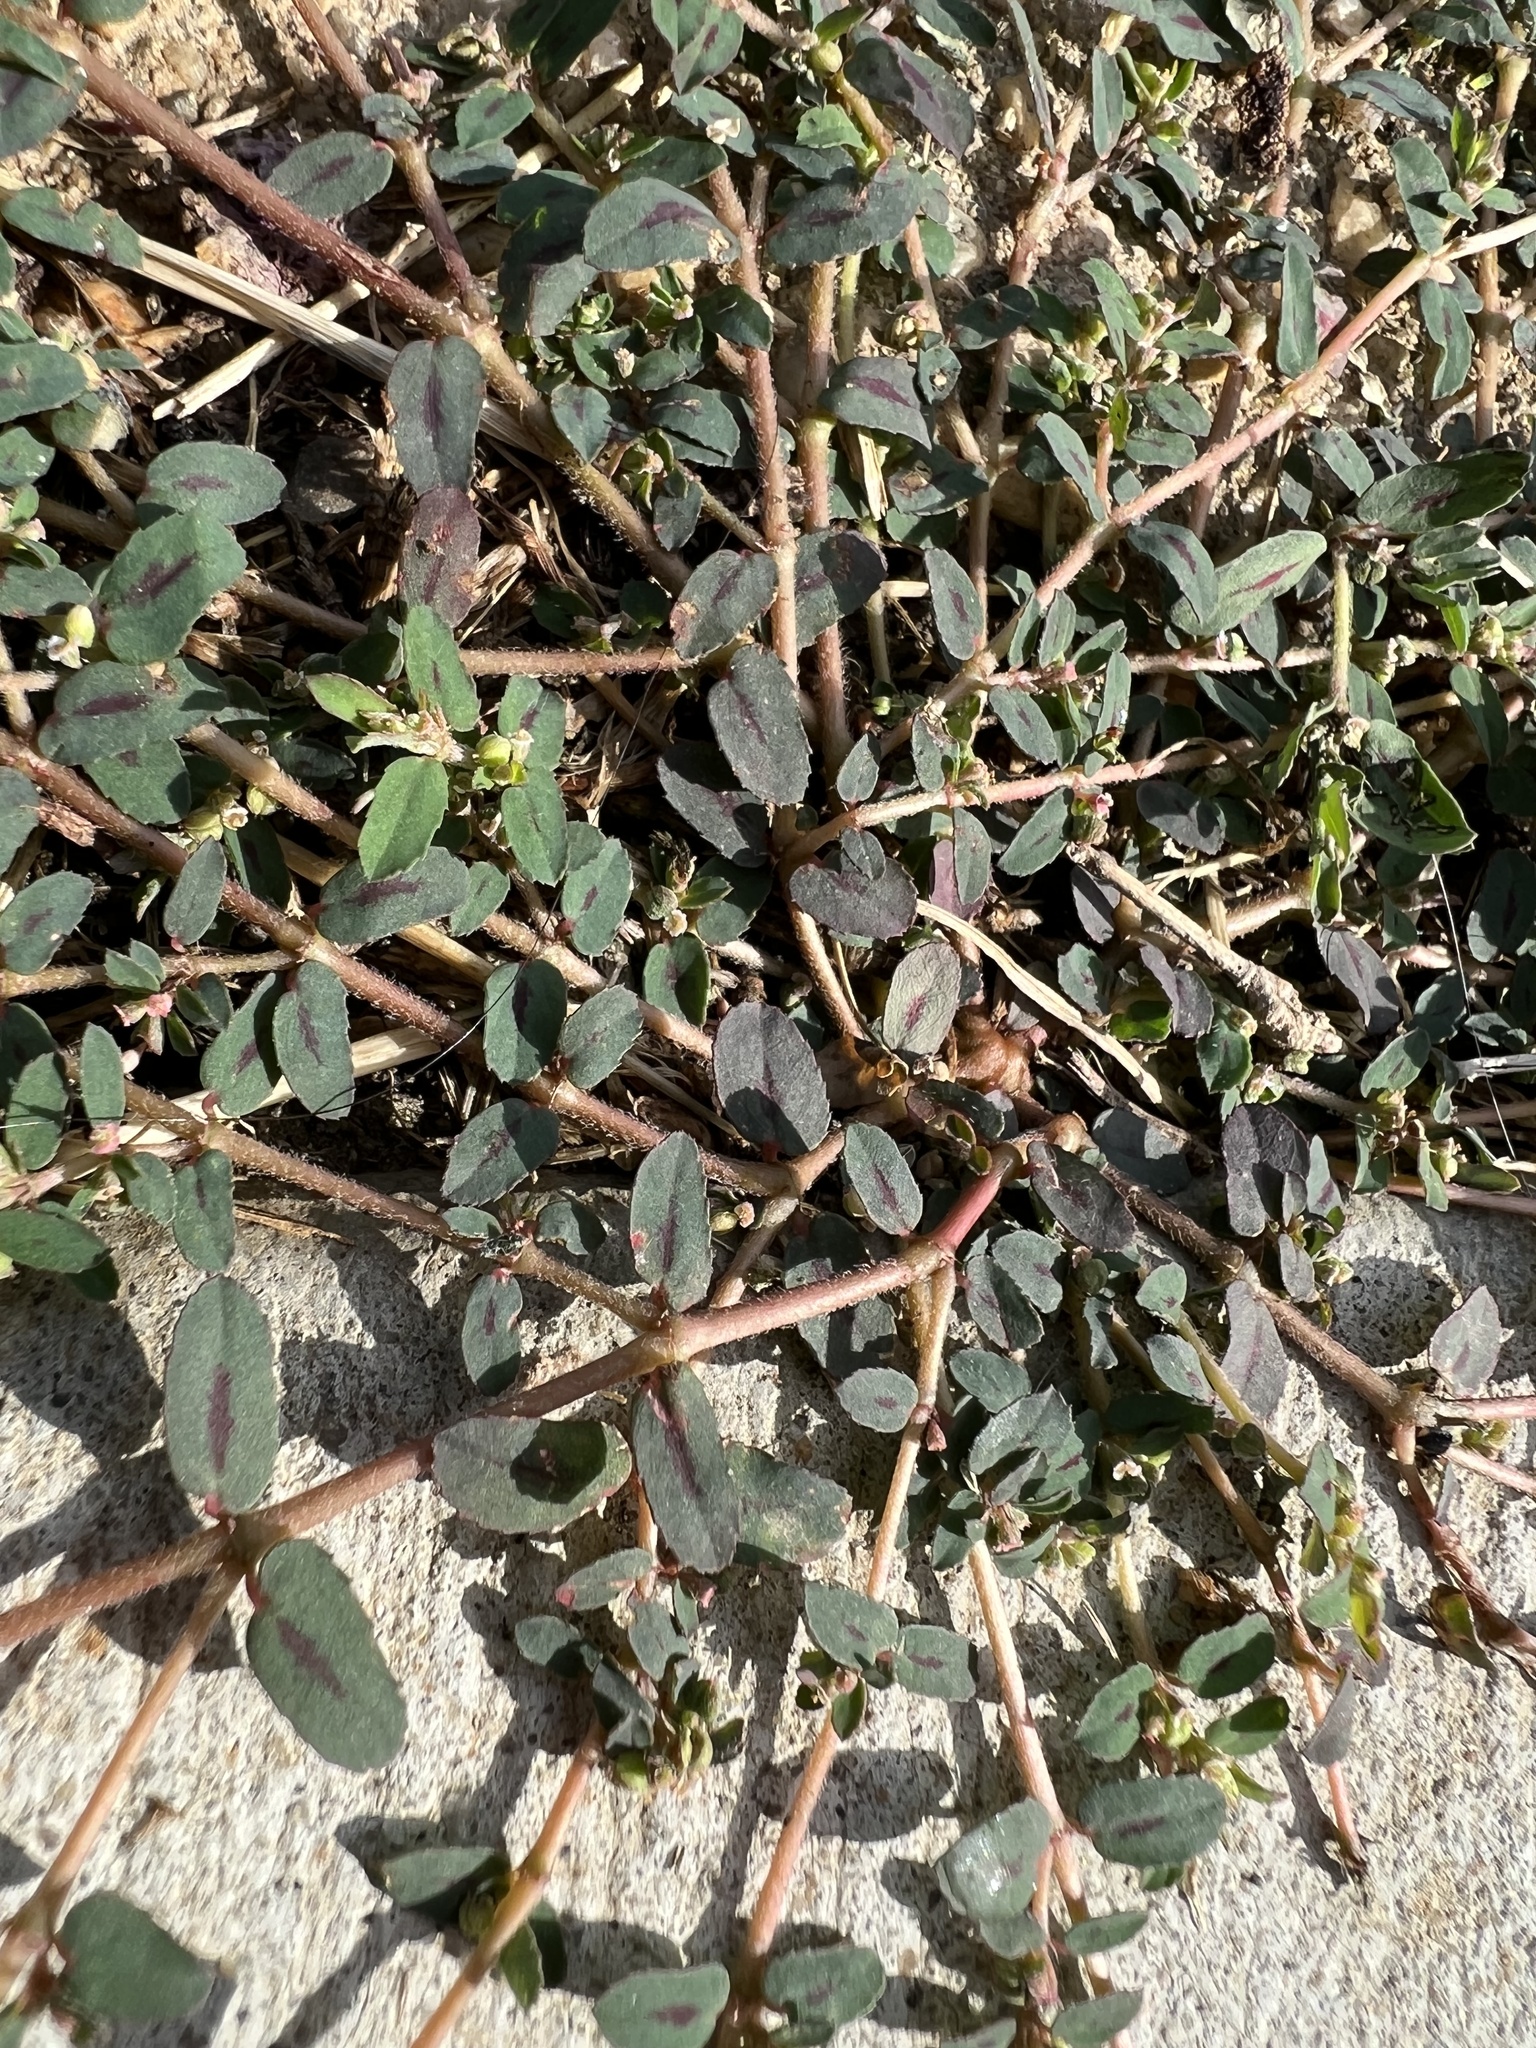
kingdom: Plantae
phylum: Tracheophyta
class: Magnoliopsida
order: Malpighiales
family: Euphorbiaceae
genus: Euphorbia
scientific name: Euphorbia maculata
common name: Spotted spurge
